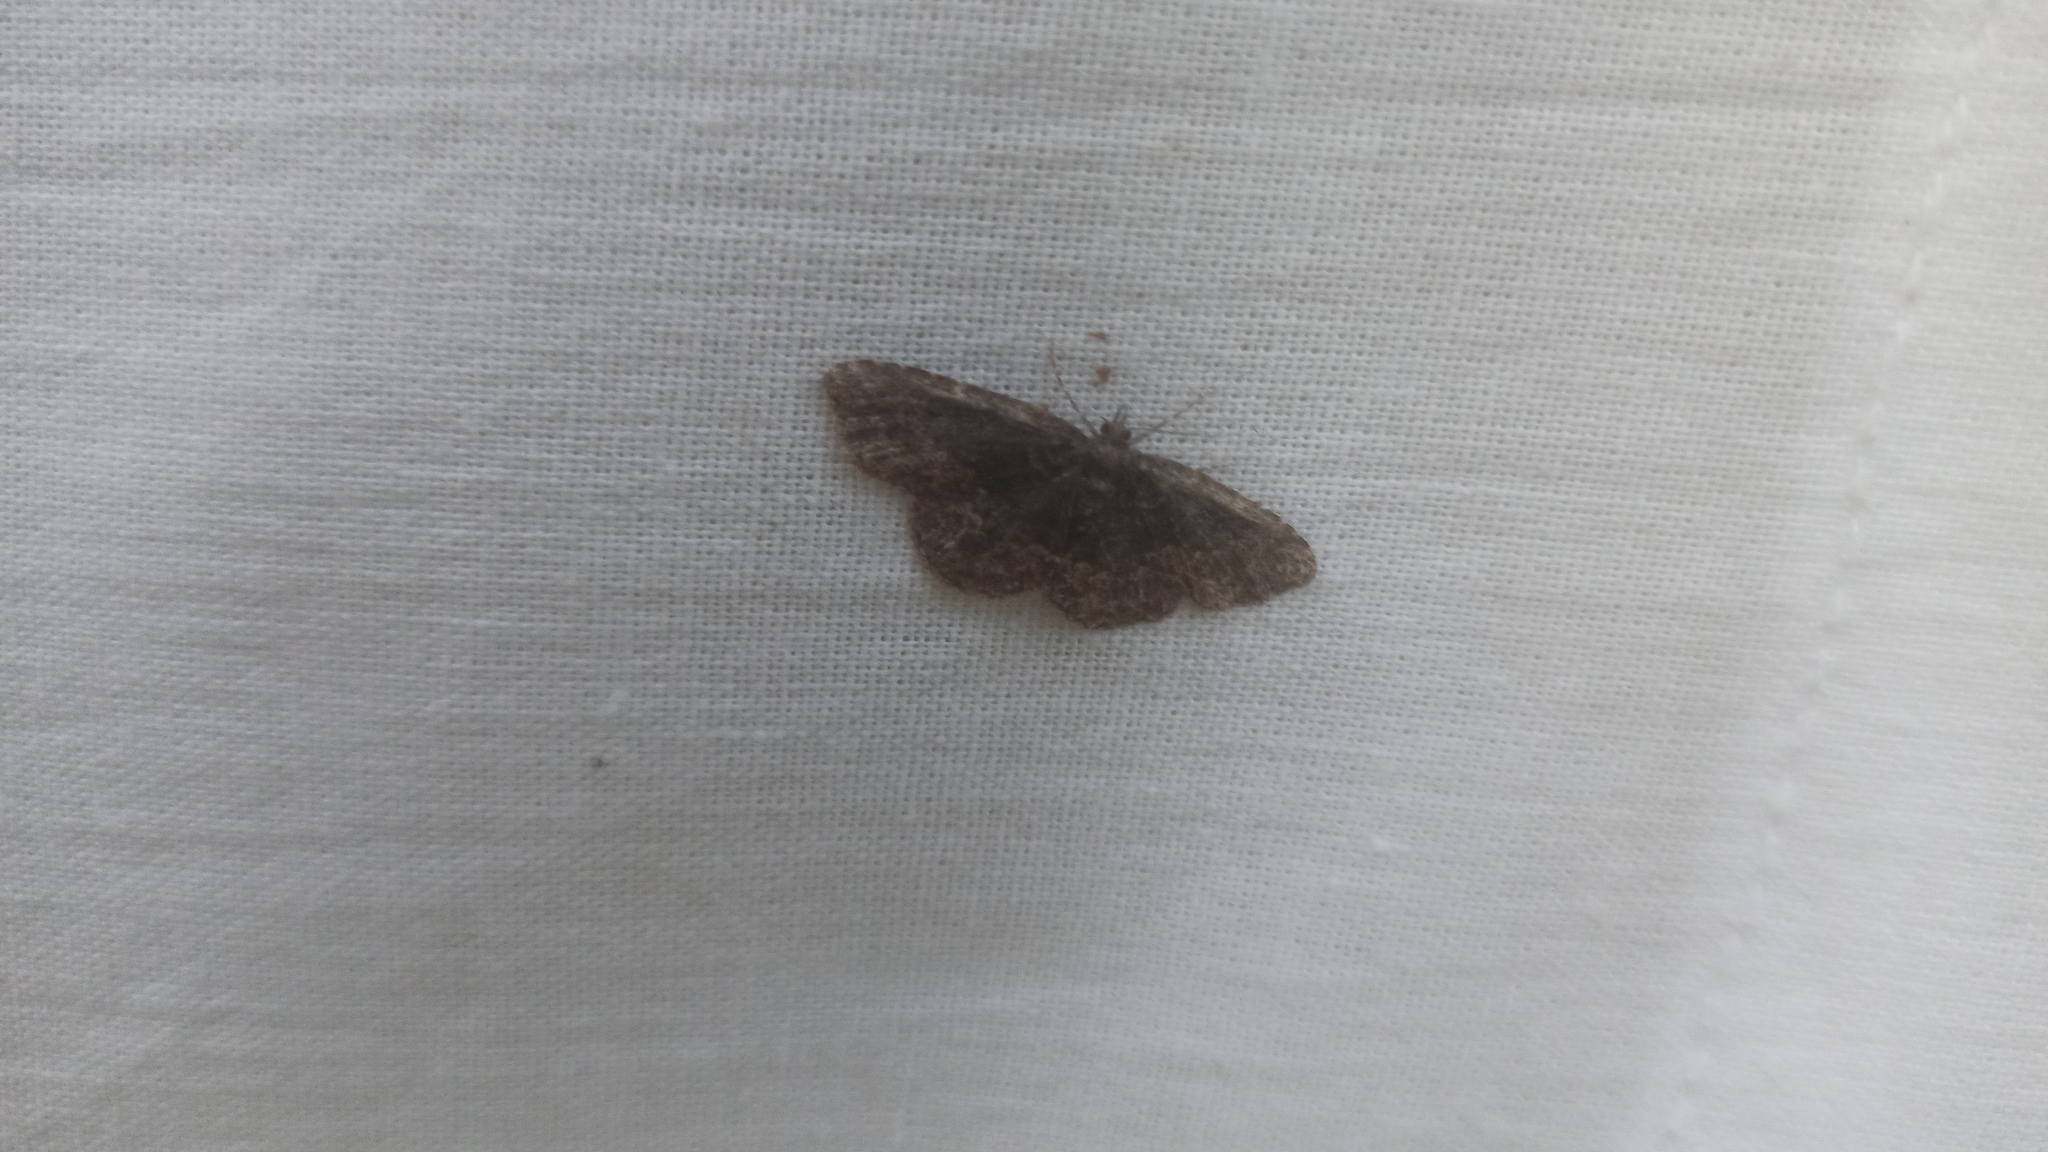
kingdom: Animalia
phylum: Arthropoda
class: Insecta
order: Lepidoptera
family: Erebidae
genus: Parascotia
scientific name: Parascotia fuliginaria
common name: Waved black
